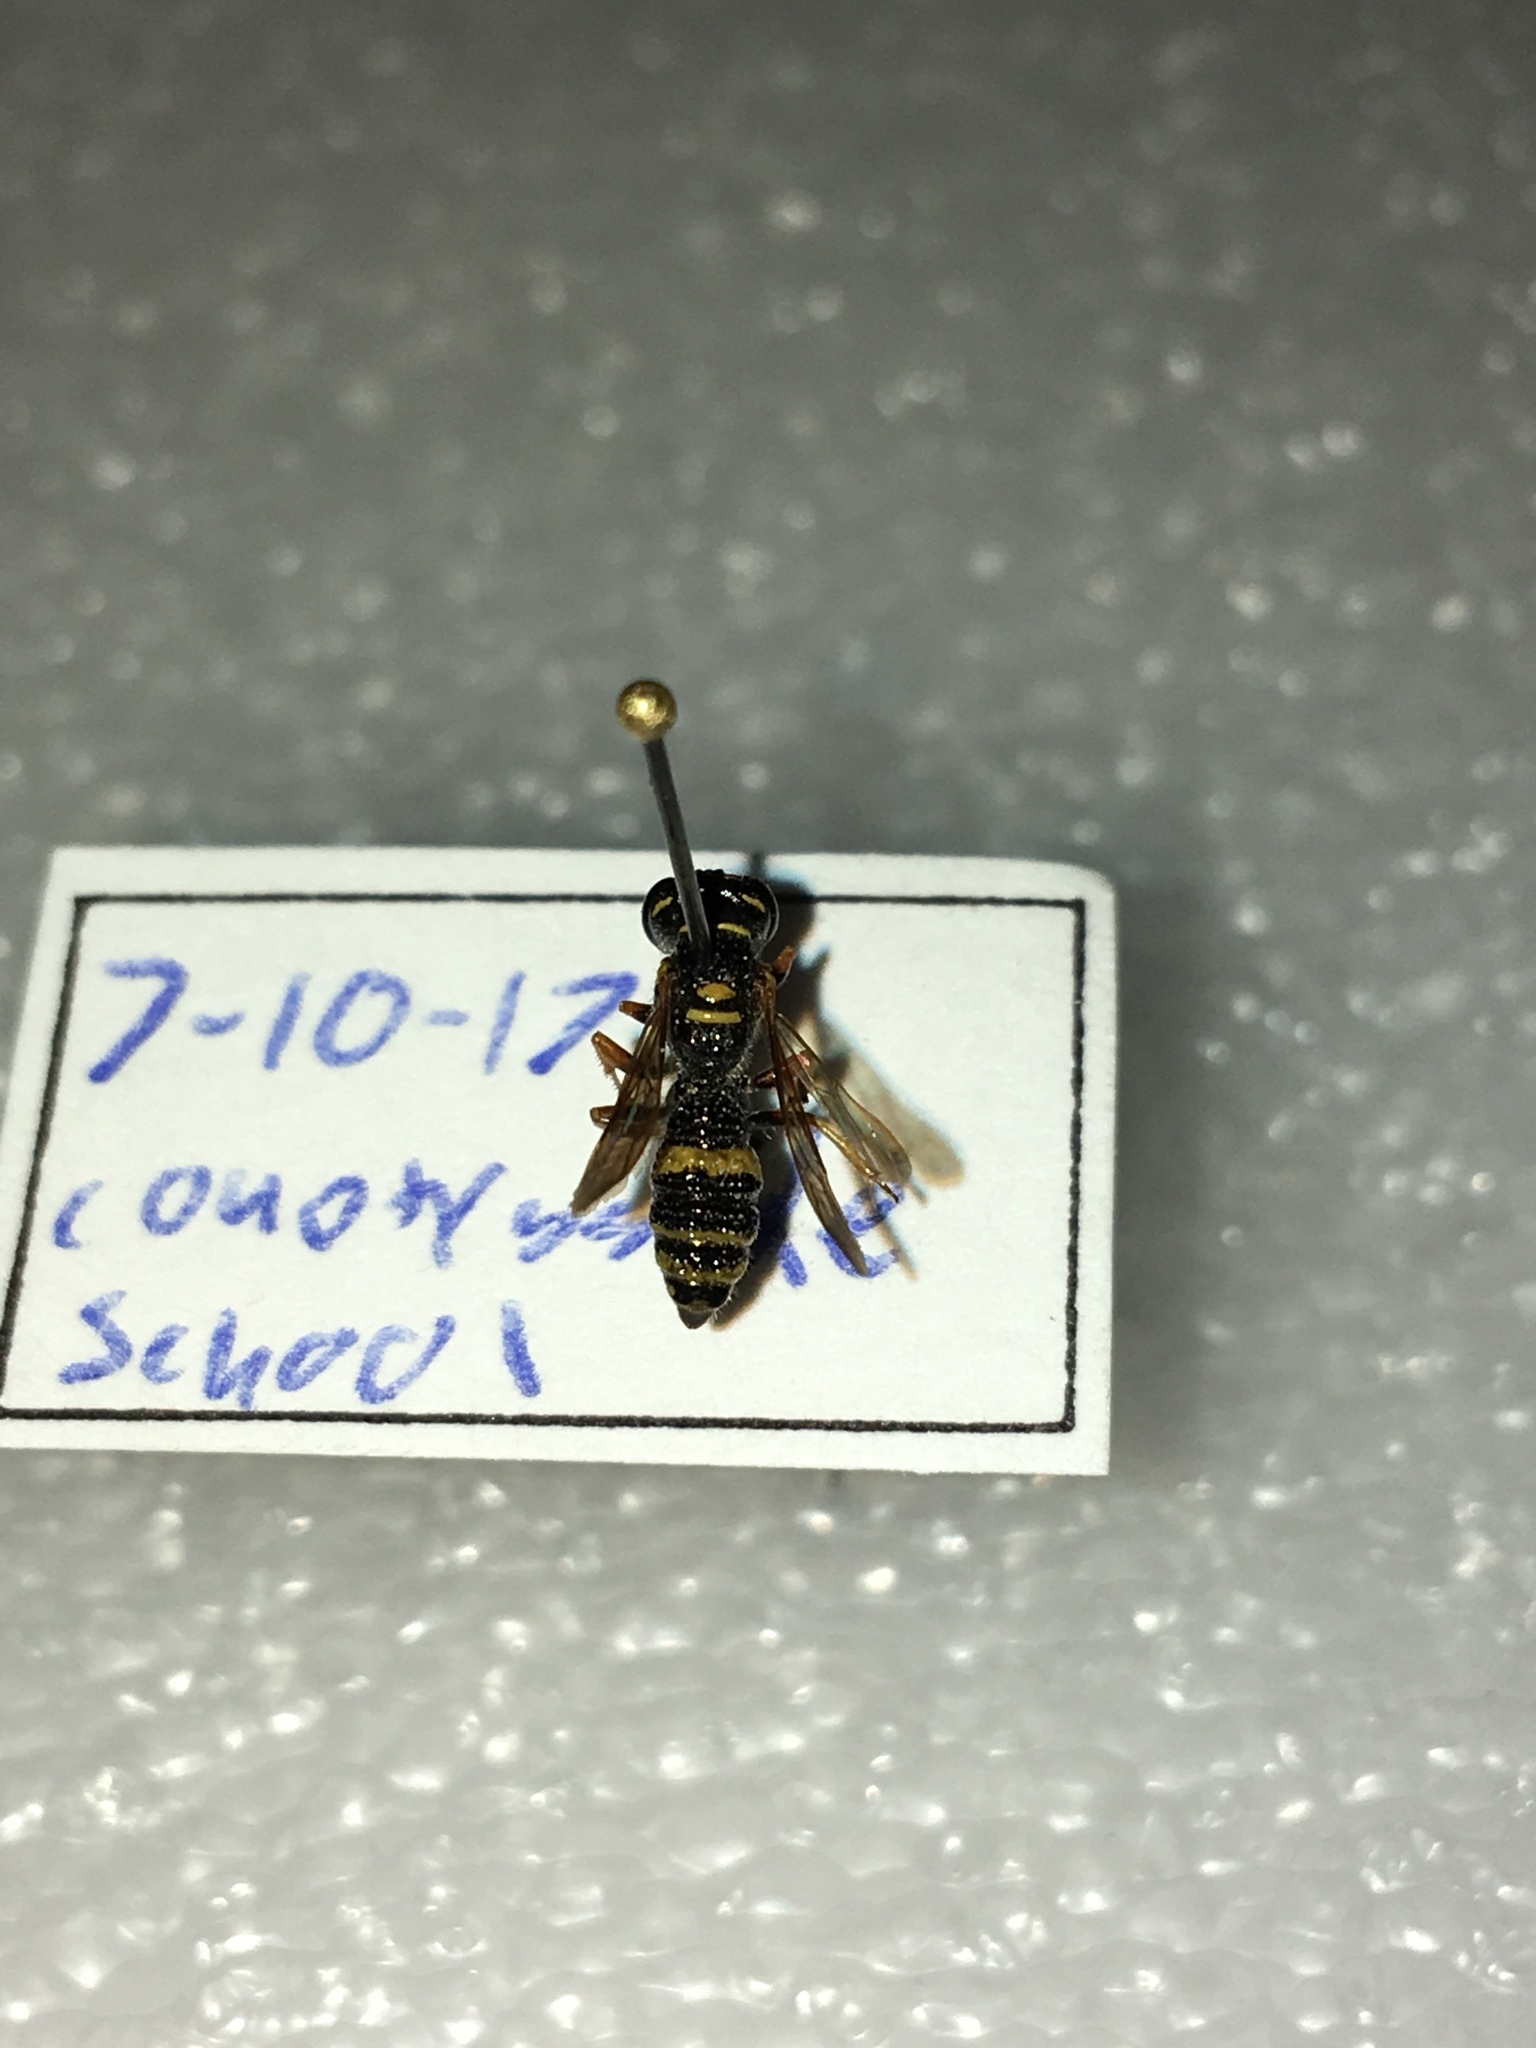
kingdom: Animalia
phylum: Arthropoda
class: Insecta
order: Hymenoptera
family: Crabronidae
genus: Philanthus
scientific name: Philanthus gibbosus
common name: Humped beewolf
